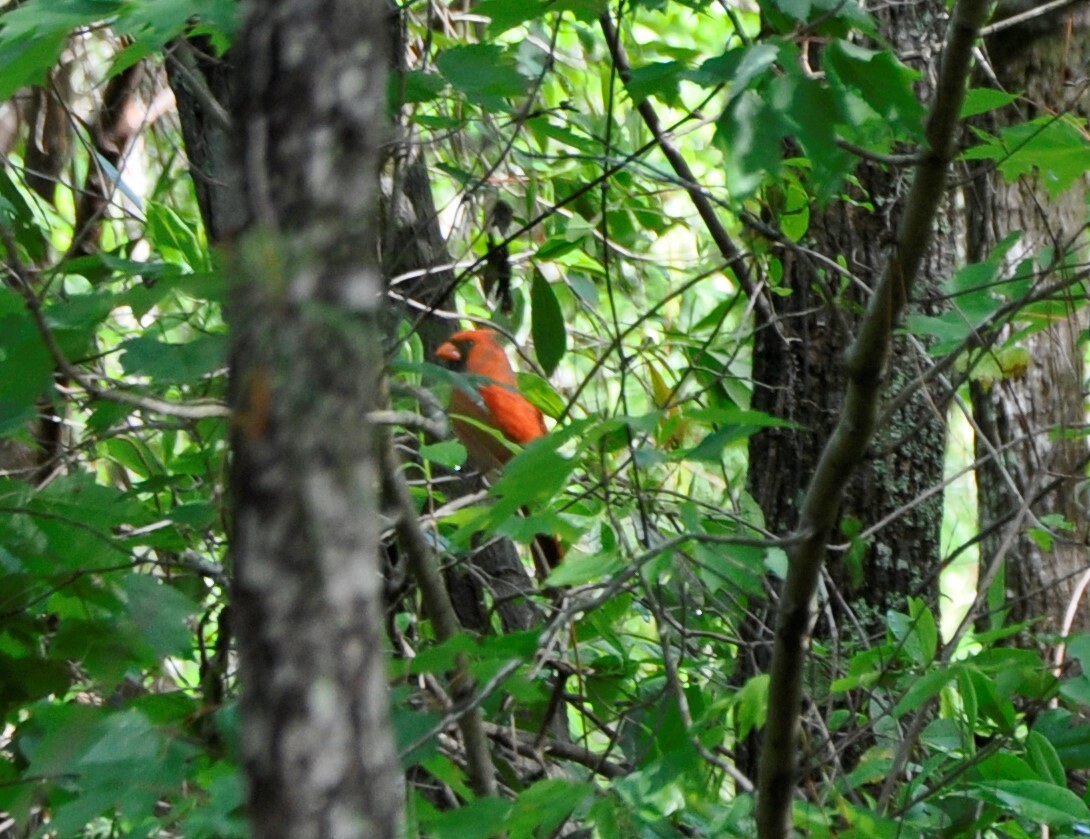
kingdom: Animalia
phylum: Chordata
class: Aves
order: Passeriformes
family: Cardinalidae
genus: Cardinalis
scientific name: Cardinalis cardinalis
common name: Northern cardinal
